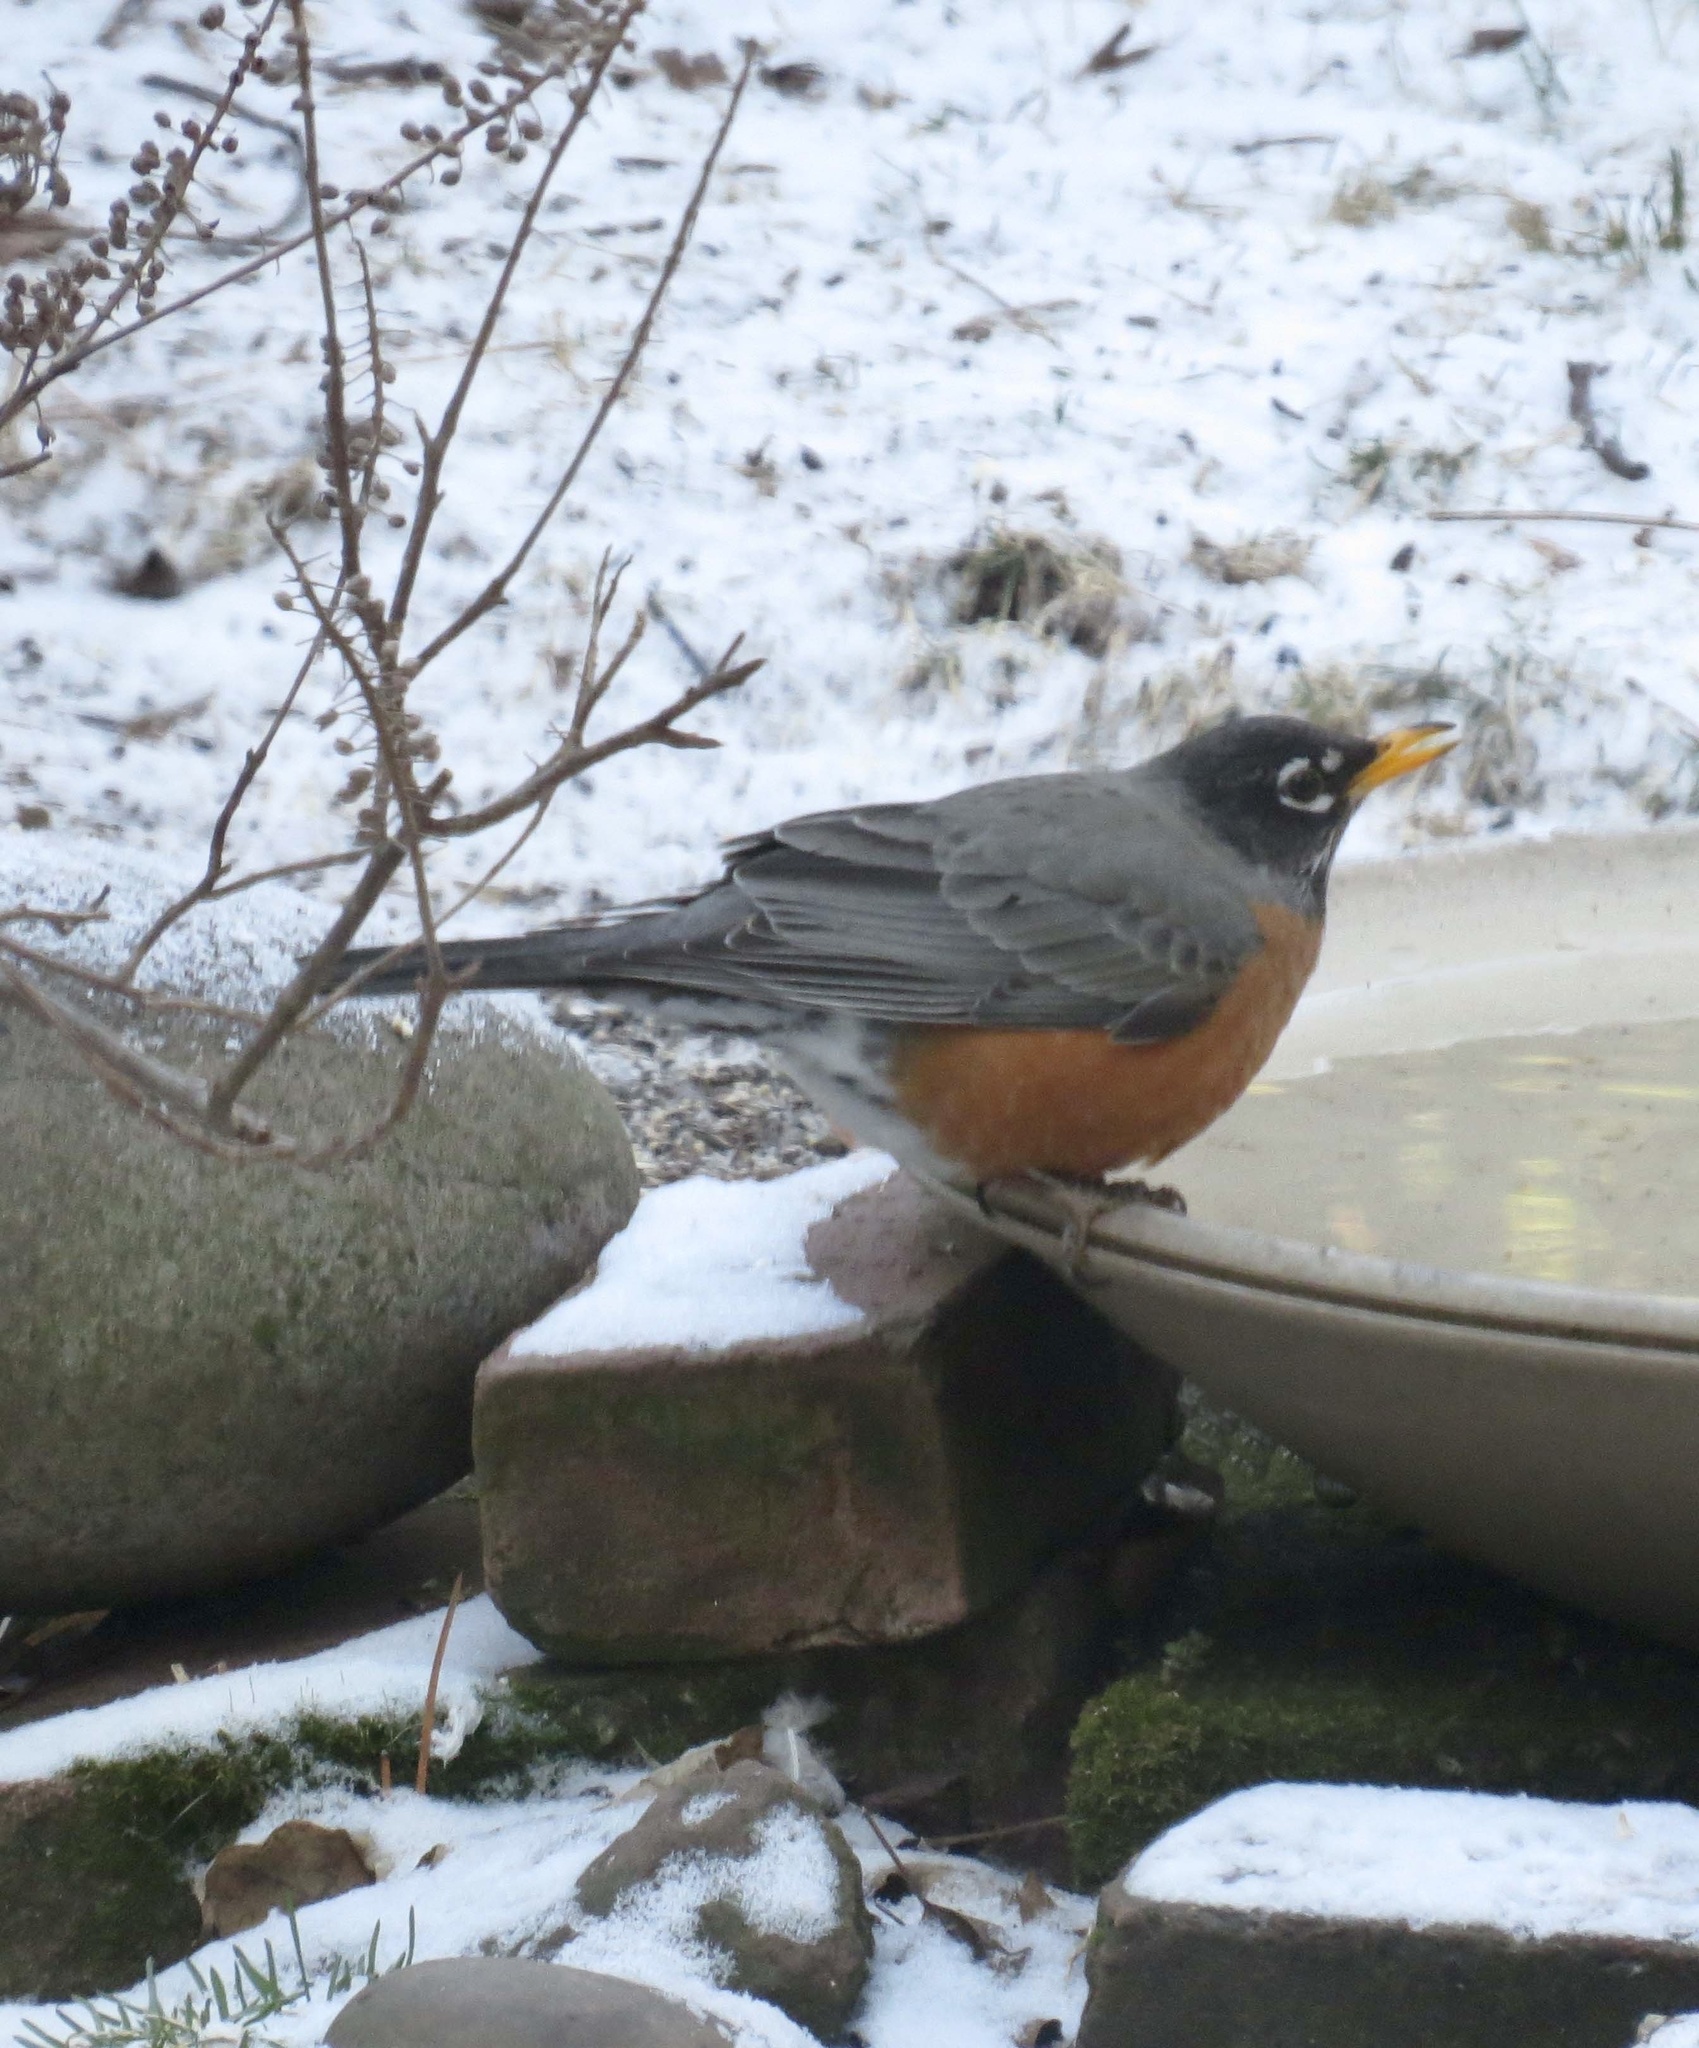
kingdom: Animalia
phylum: Chordata
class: Aves
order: Passeriformes
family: Turdidae
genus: Turdus
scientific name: Turdus migratorius
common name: American robin
